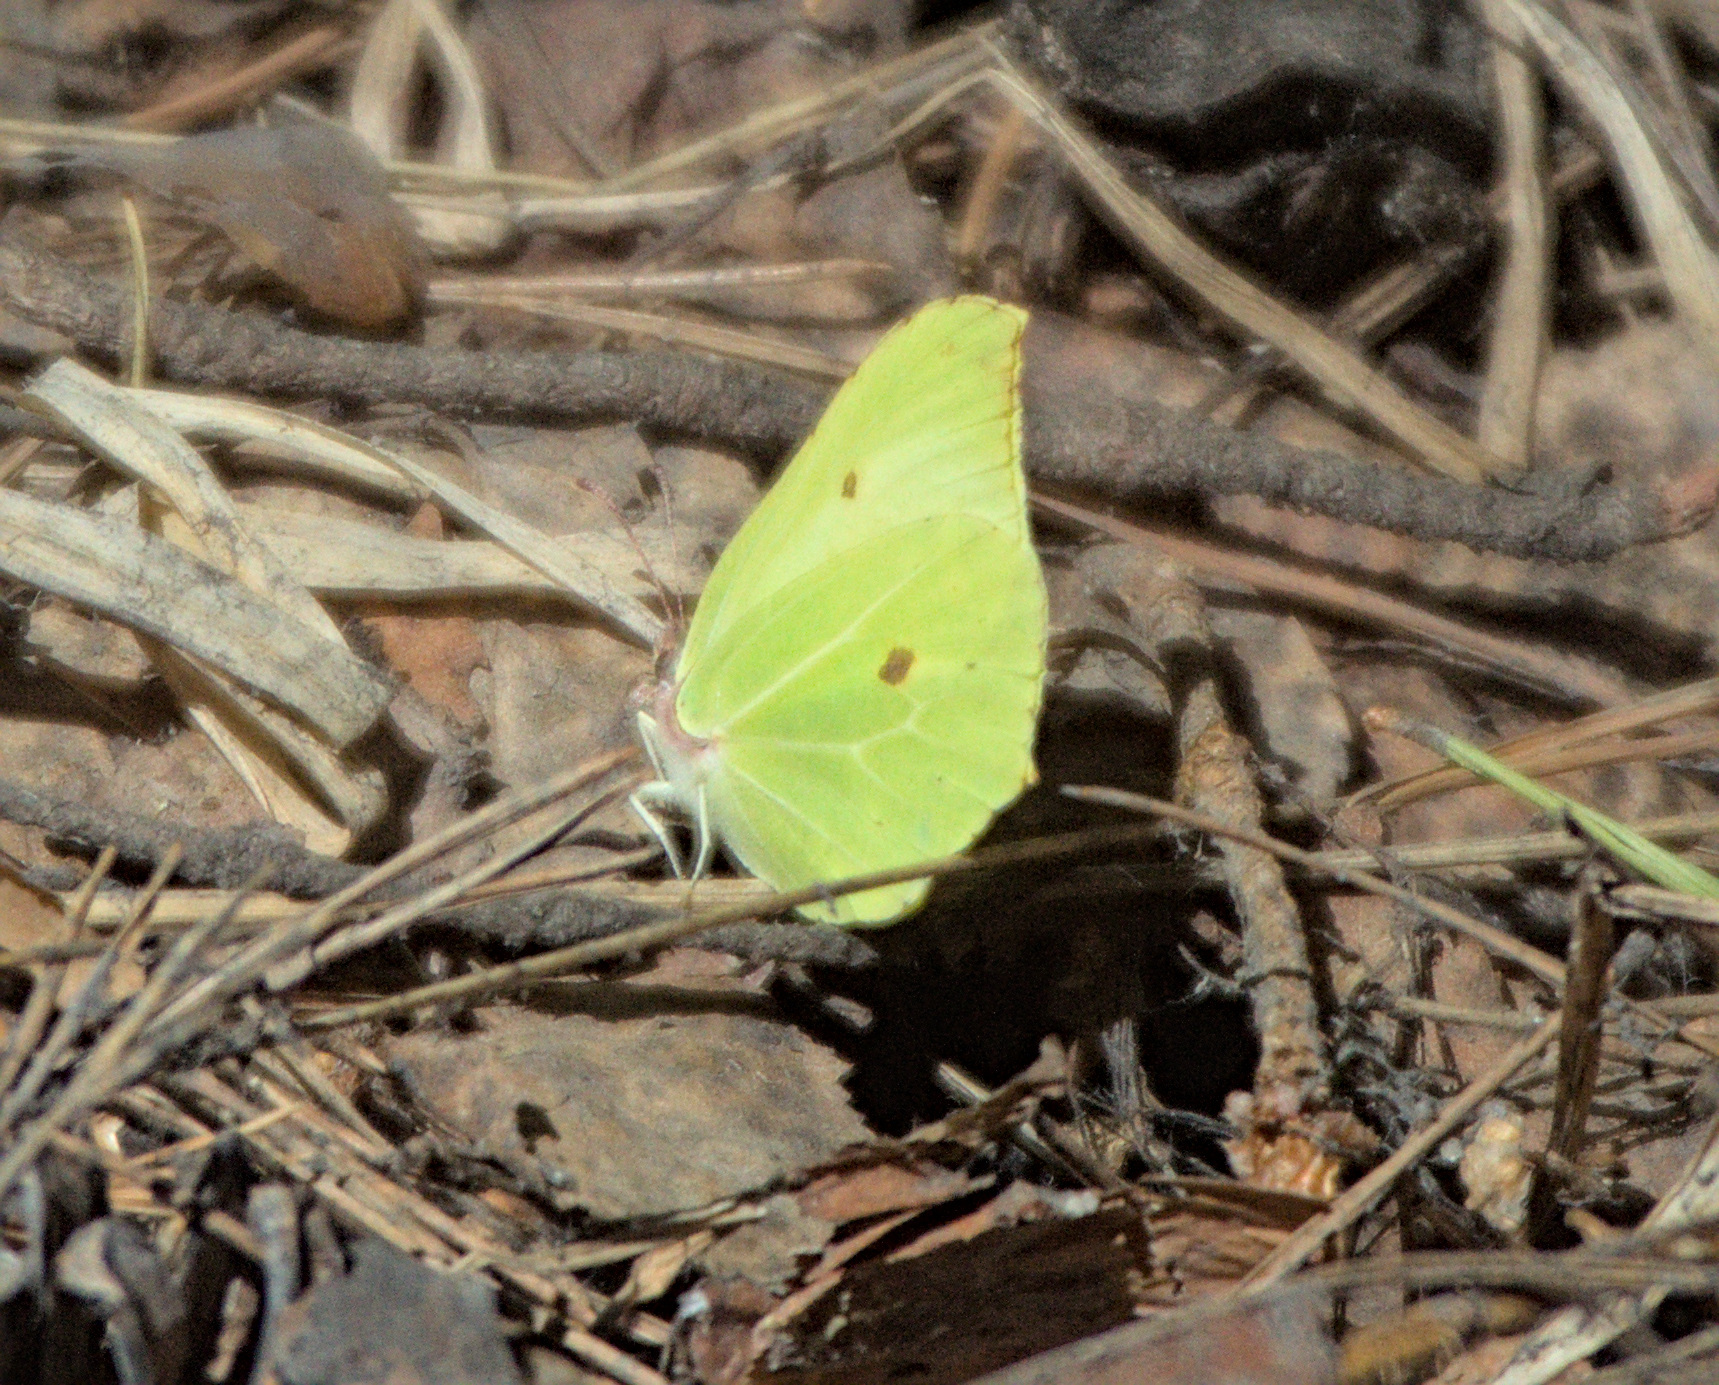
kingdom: Animalia
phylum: Arthropoda
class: Insecta
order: Lepidoptera
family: Pieridae
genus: Gonepteryx
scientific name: Gonepteryx rhamni
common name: Brimstone
